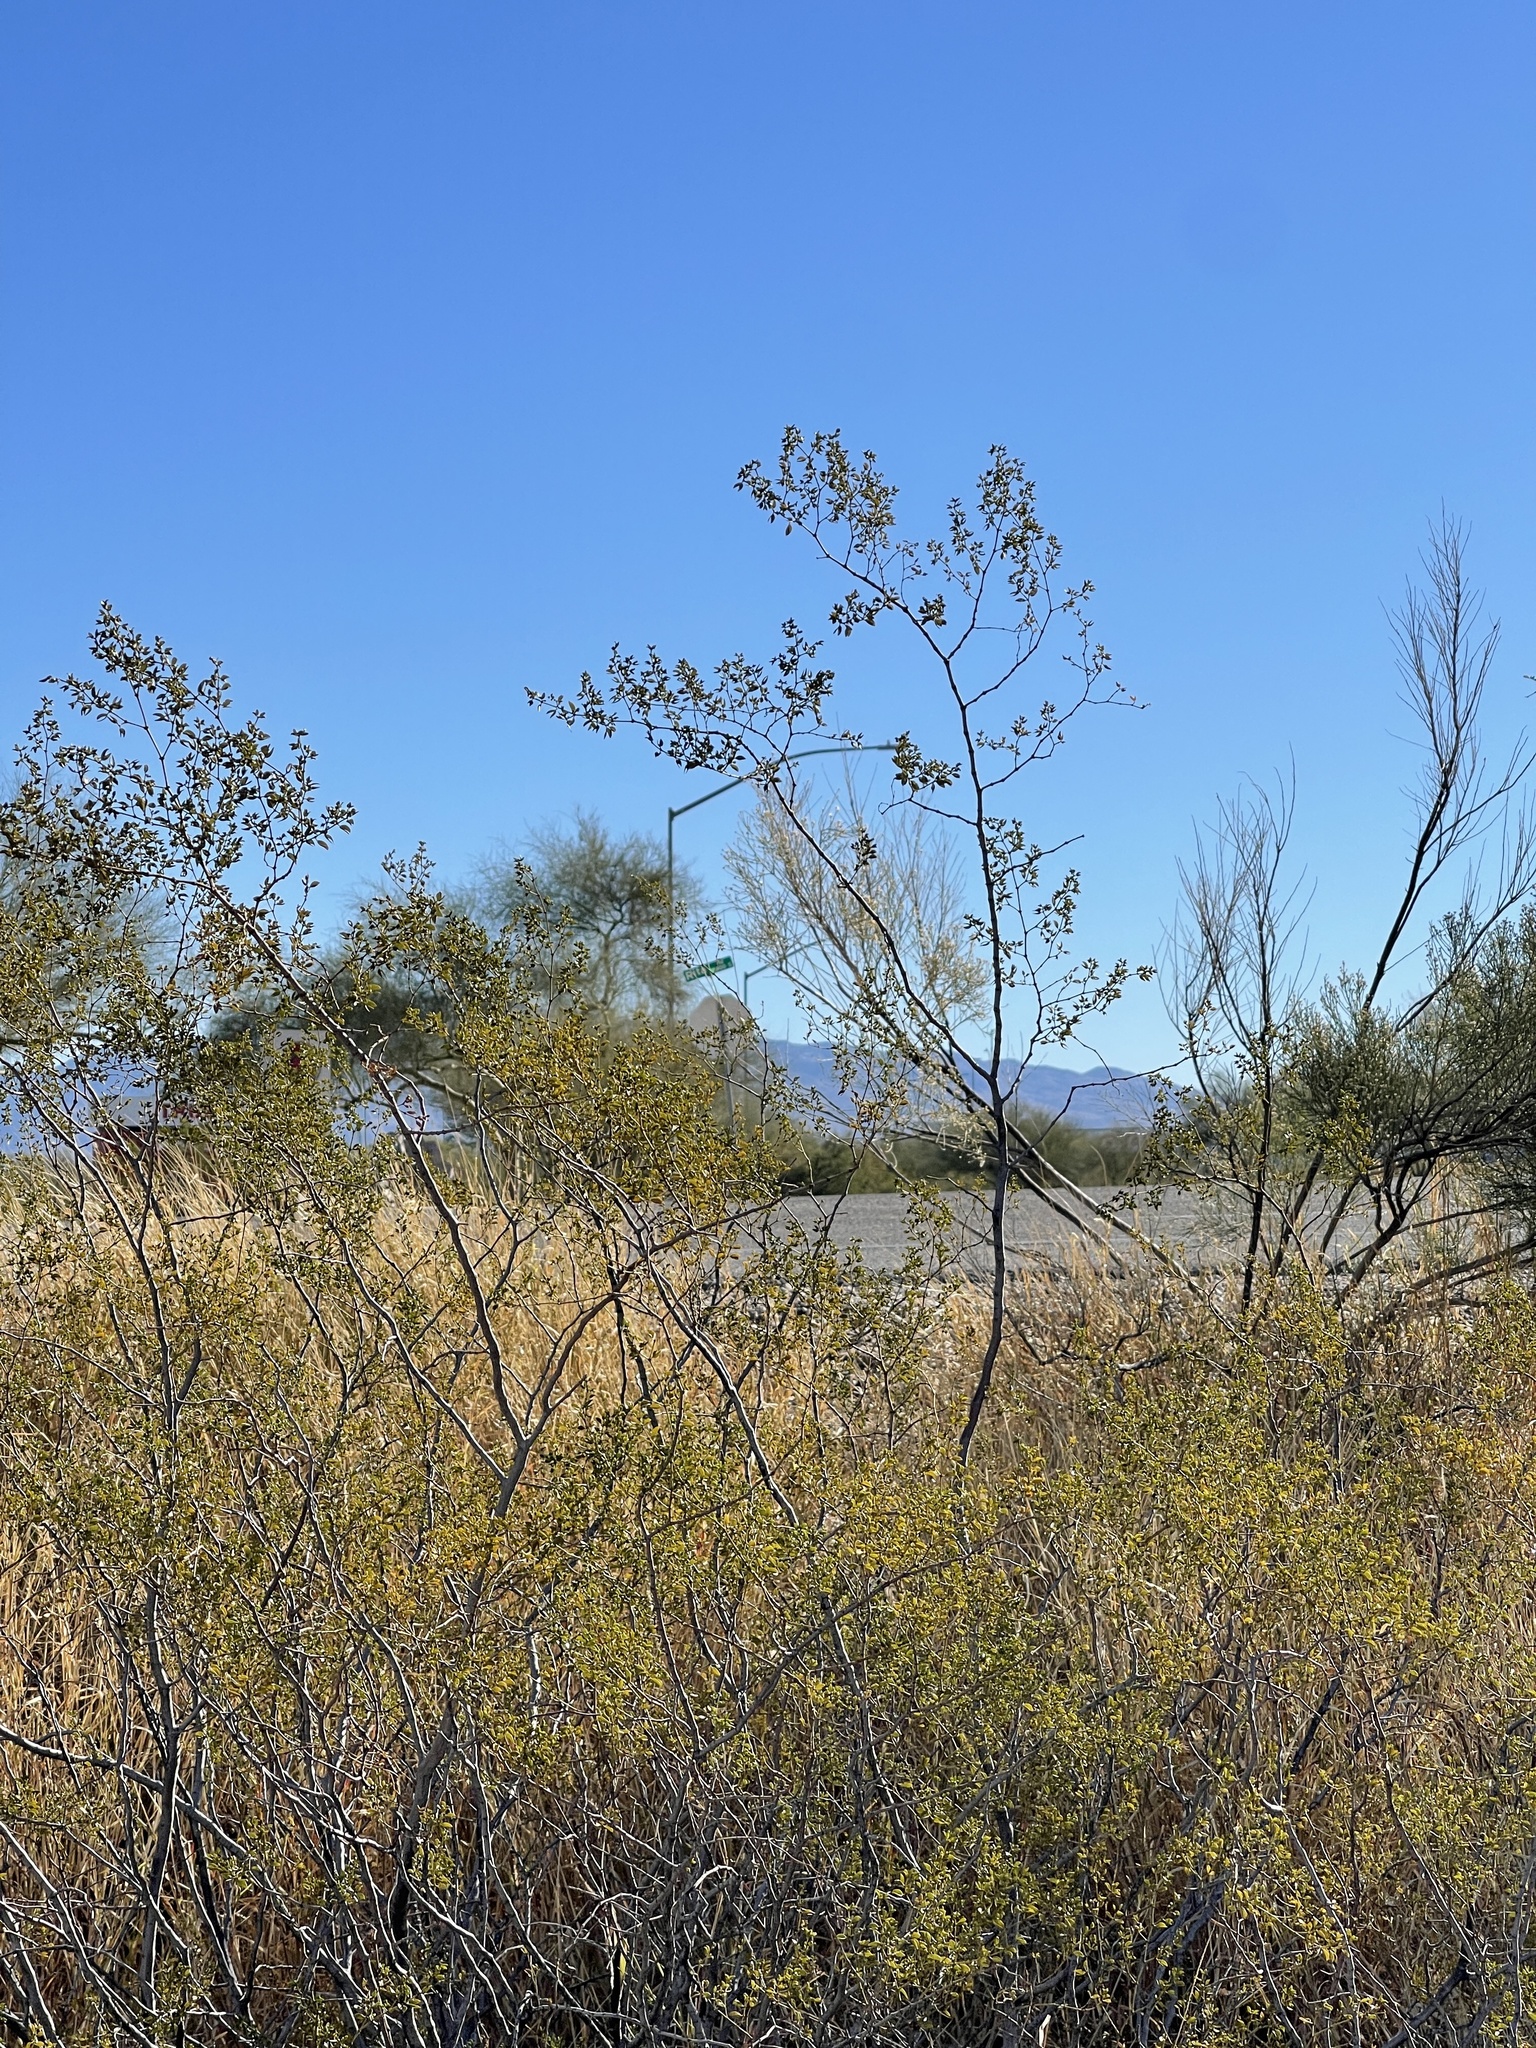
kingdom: Plantae
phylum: Tracheophyta
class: Magnoliopsida
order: Zygophyllales
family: Zygophyllaceae
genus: Larrea
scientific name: Larrea tridentata
